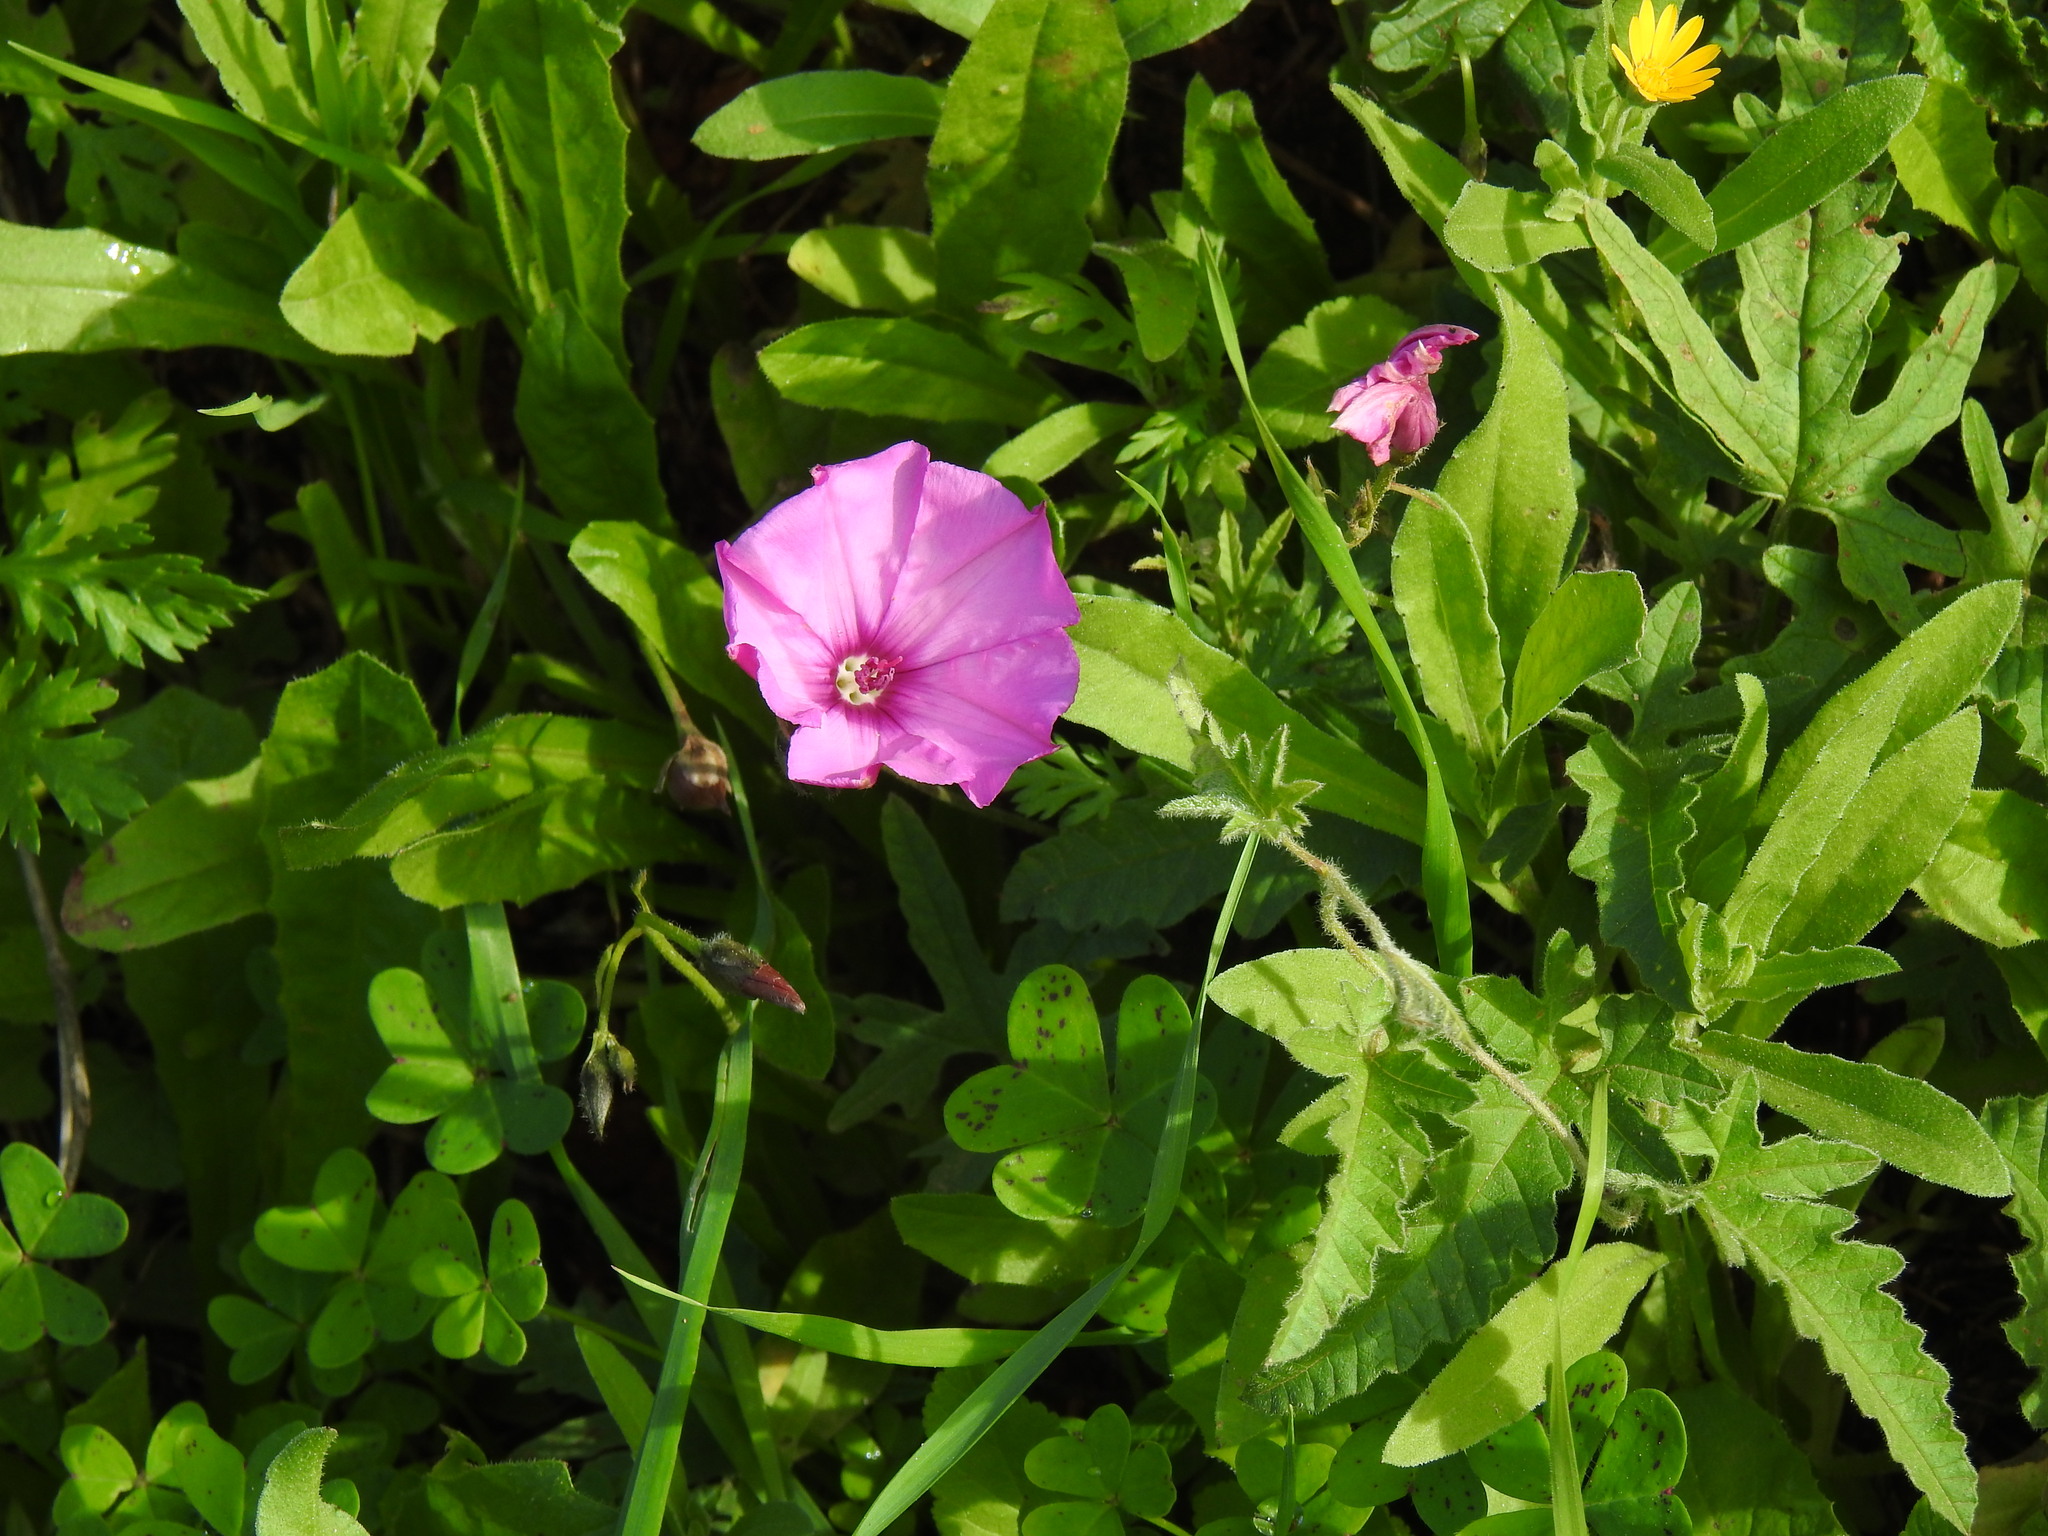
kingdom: Plantae
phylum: Tracheophyta
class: Magnoliopsida
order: Solanales
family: Convolvulaceae
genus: Convolvulus
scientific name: Convolvulus althaeoides
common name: Mallow bindweed
